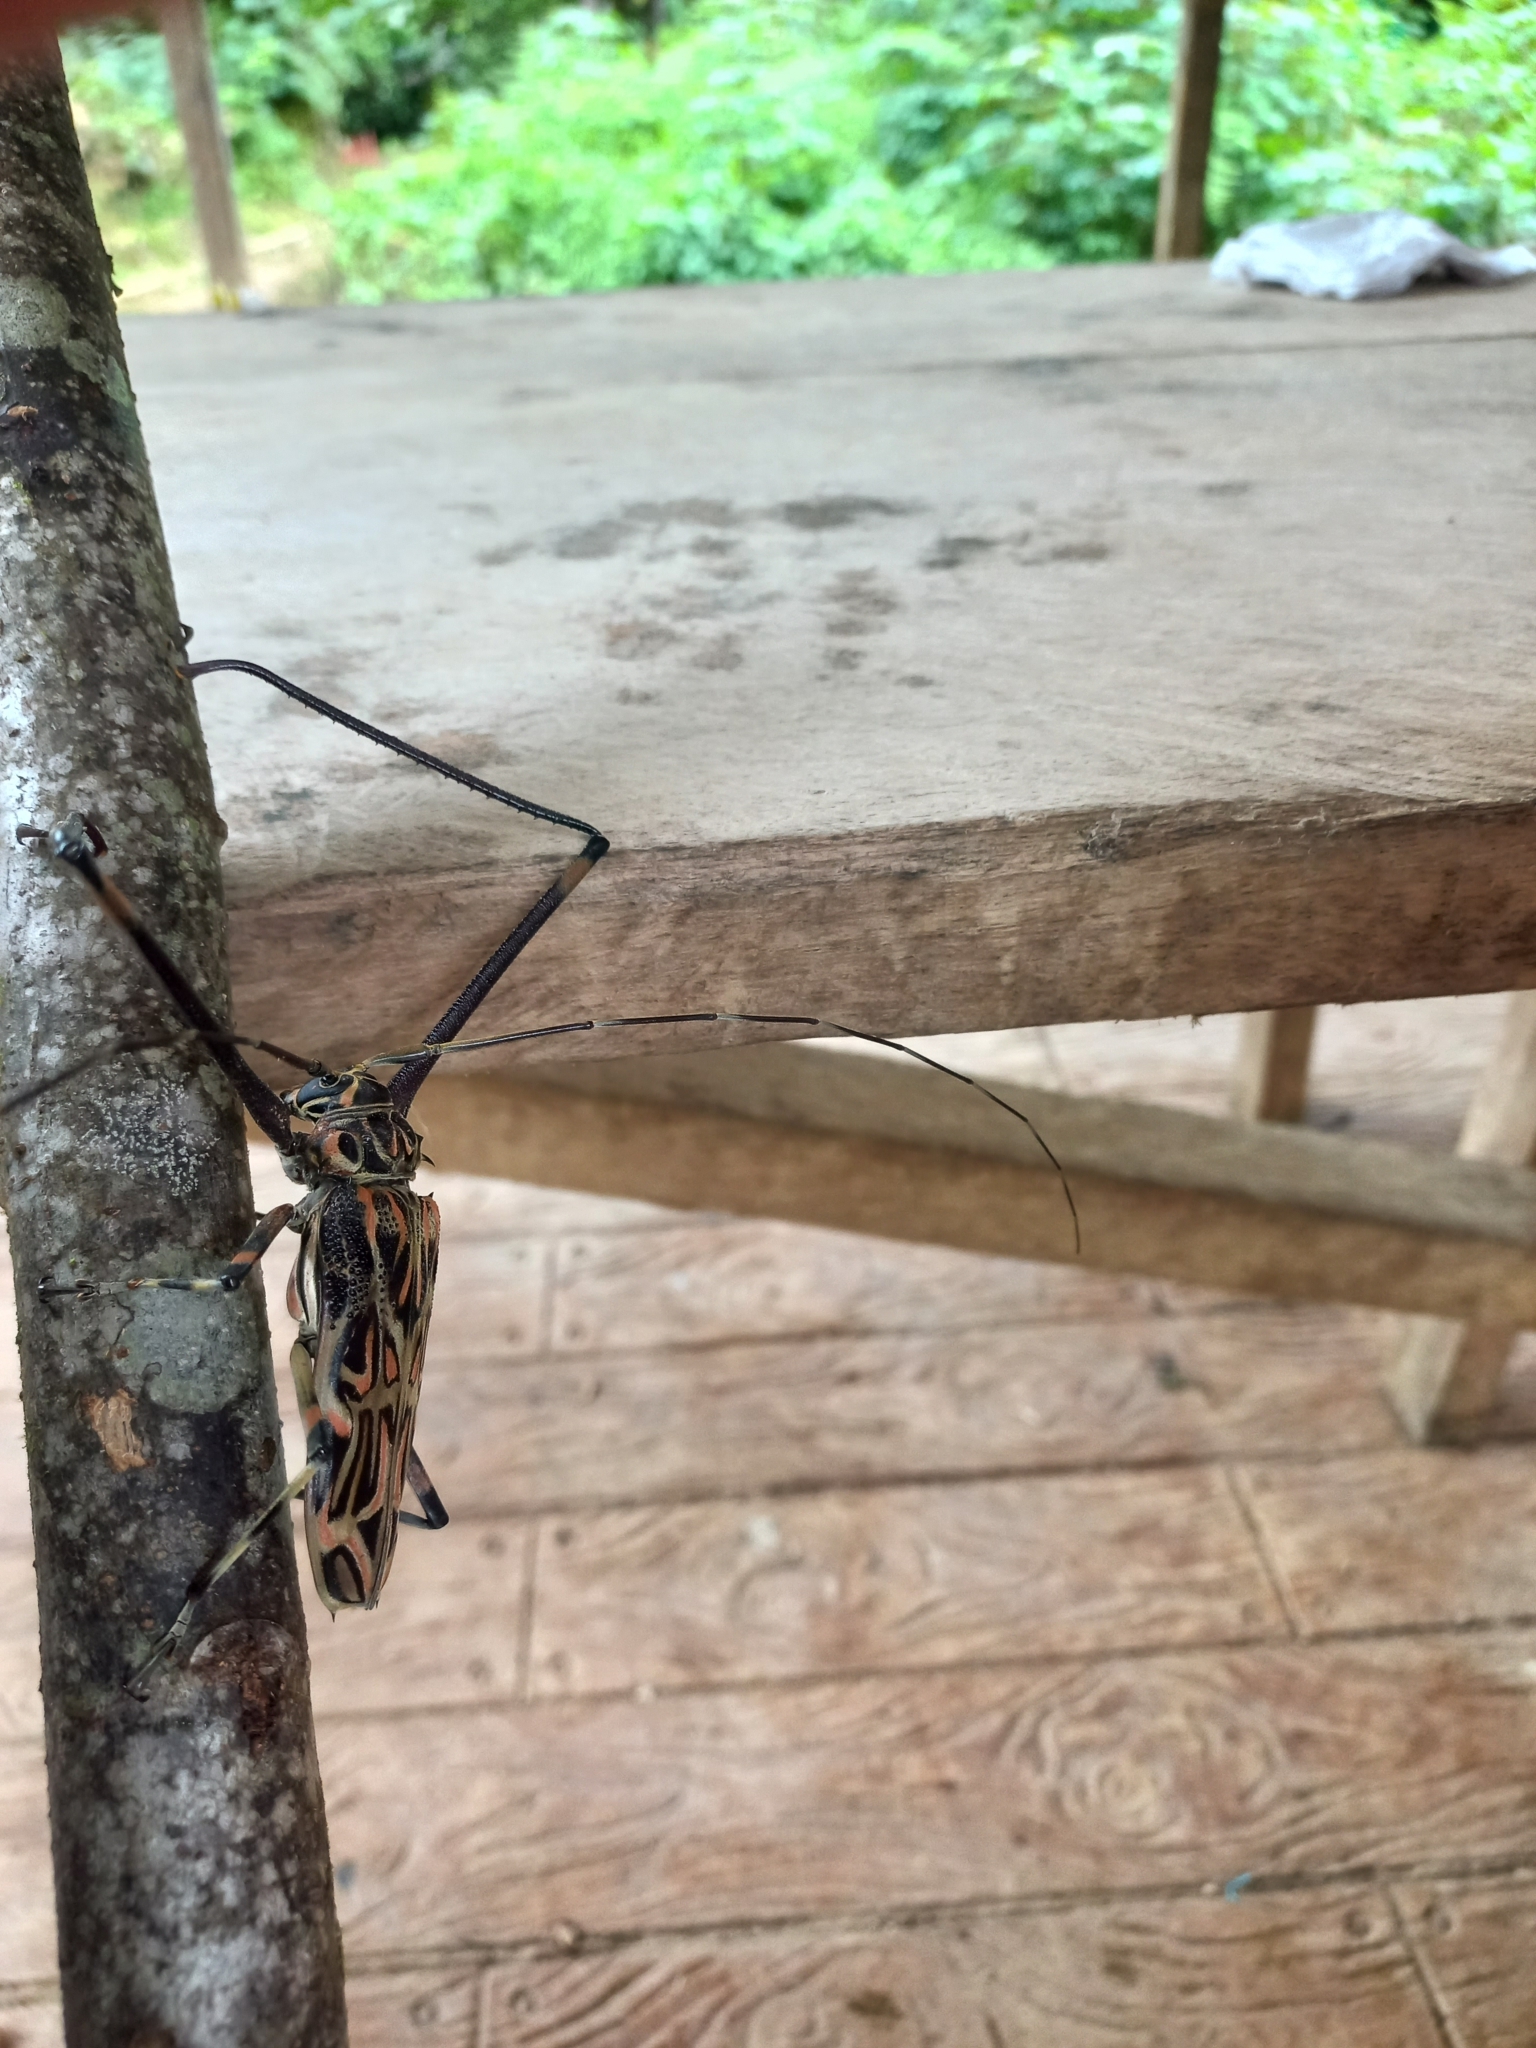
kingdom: Animalia
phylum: Arthropoda
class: Insecta
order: Coleoptera
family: Cerambycidae
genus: Acrocinus
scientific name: Acrocinus longimanus
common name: Arlequin
